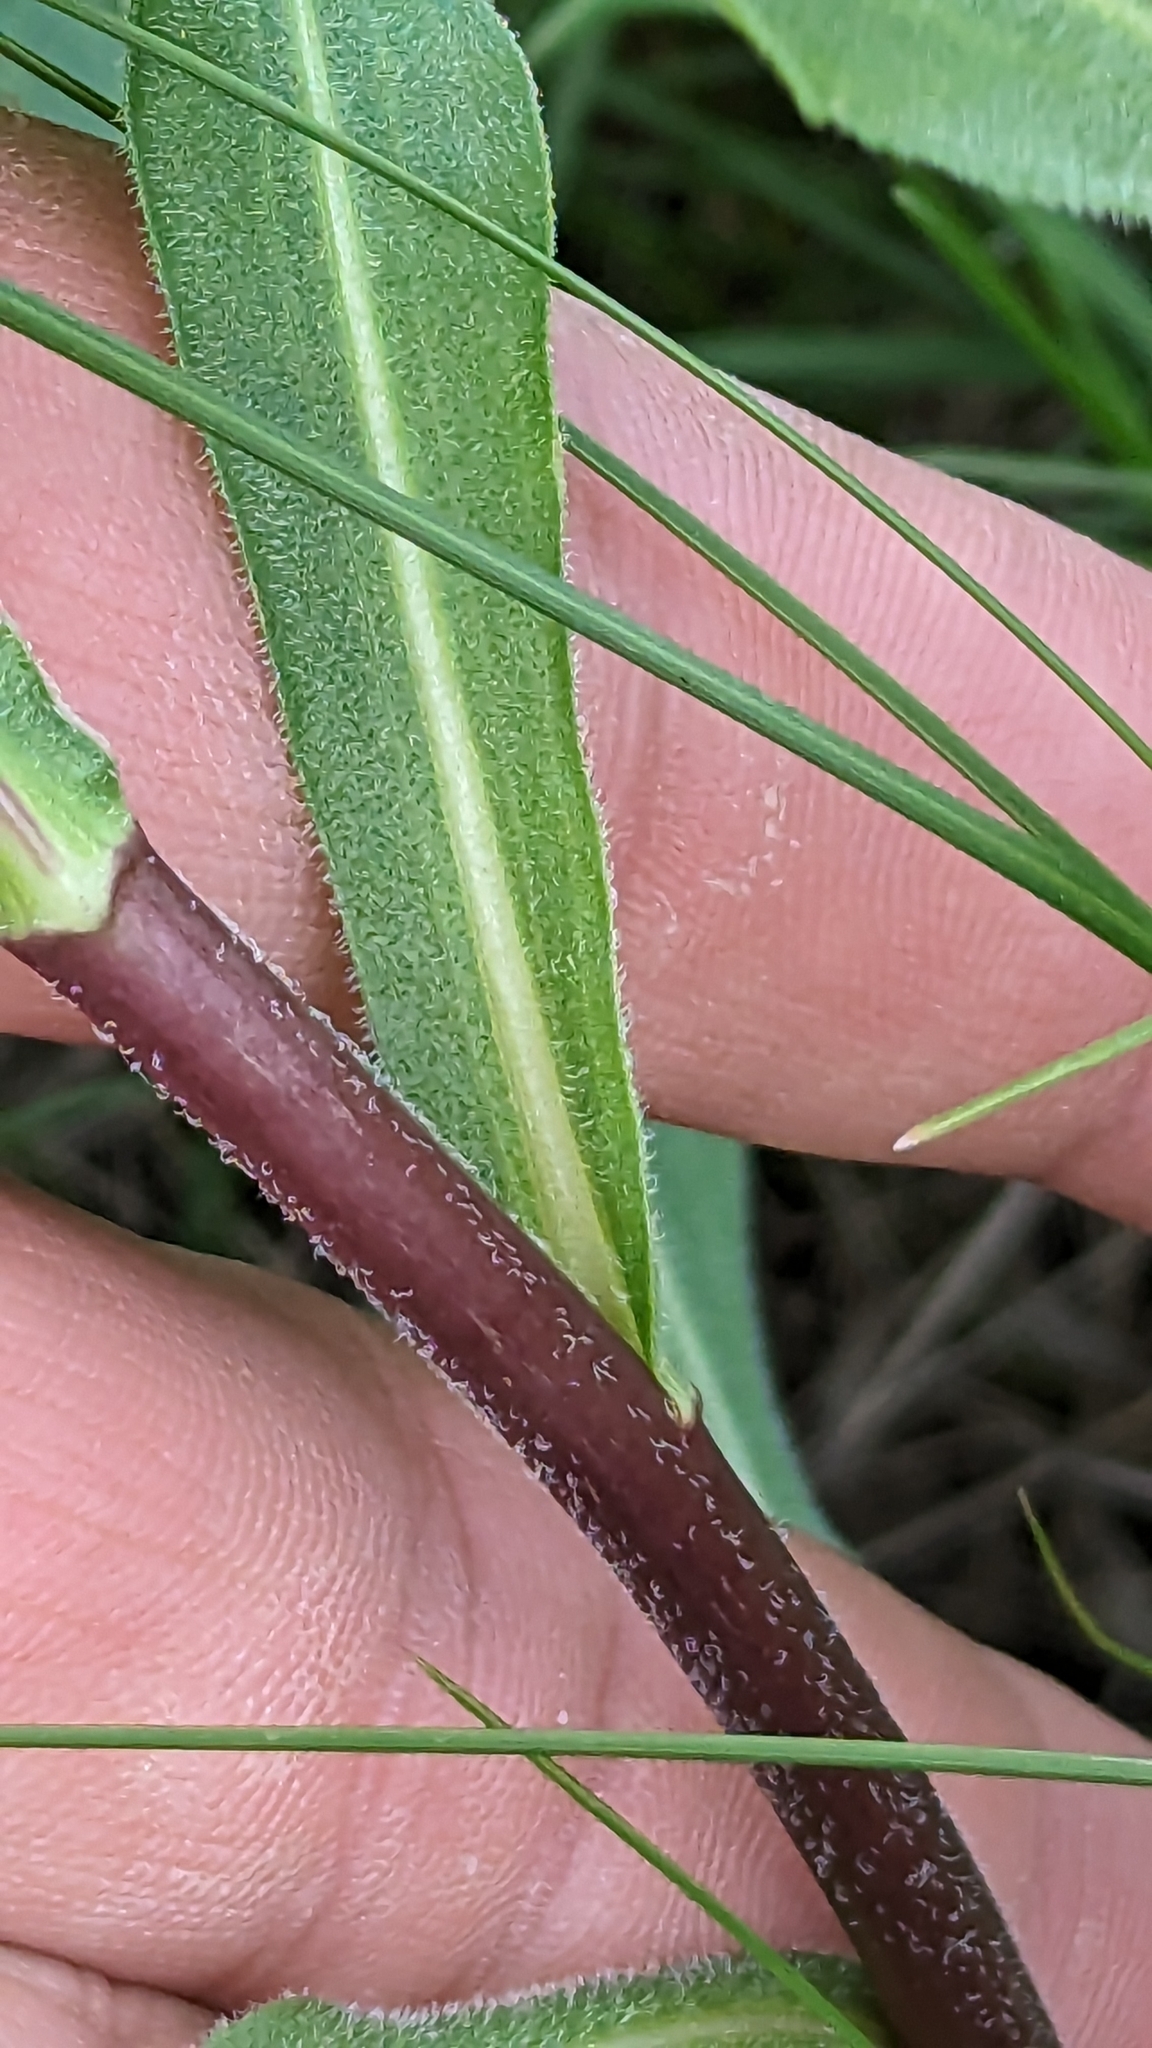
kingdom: Plantae
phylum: Tracheophyta
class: Magnoliopsida
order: Asterales
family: Asteraceae
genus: Liatris
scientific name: Liatris ligulistylis
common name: Northern plains gayfeather
